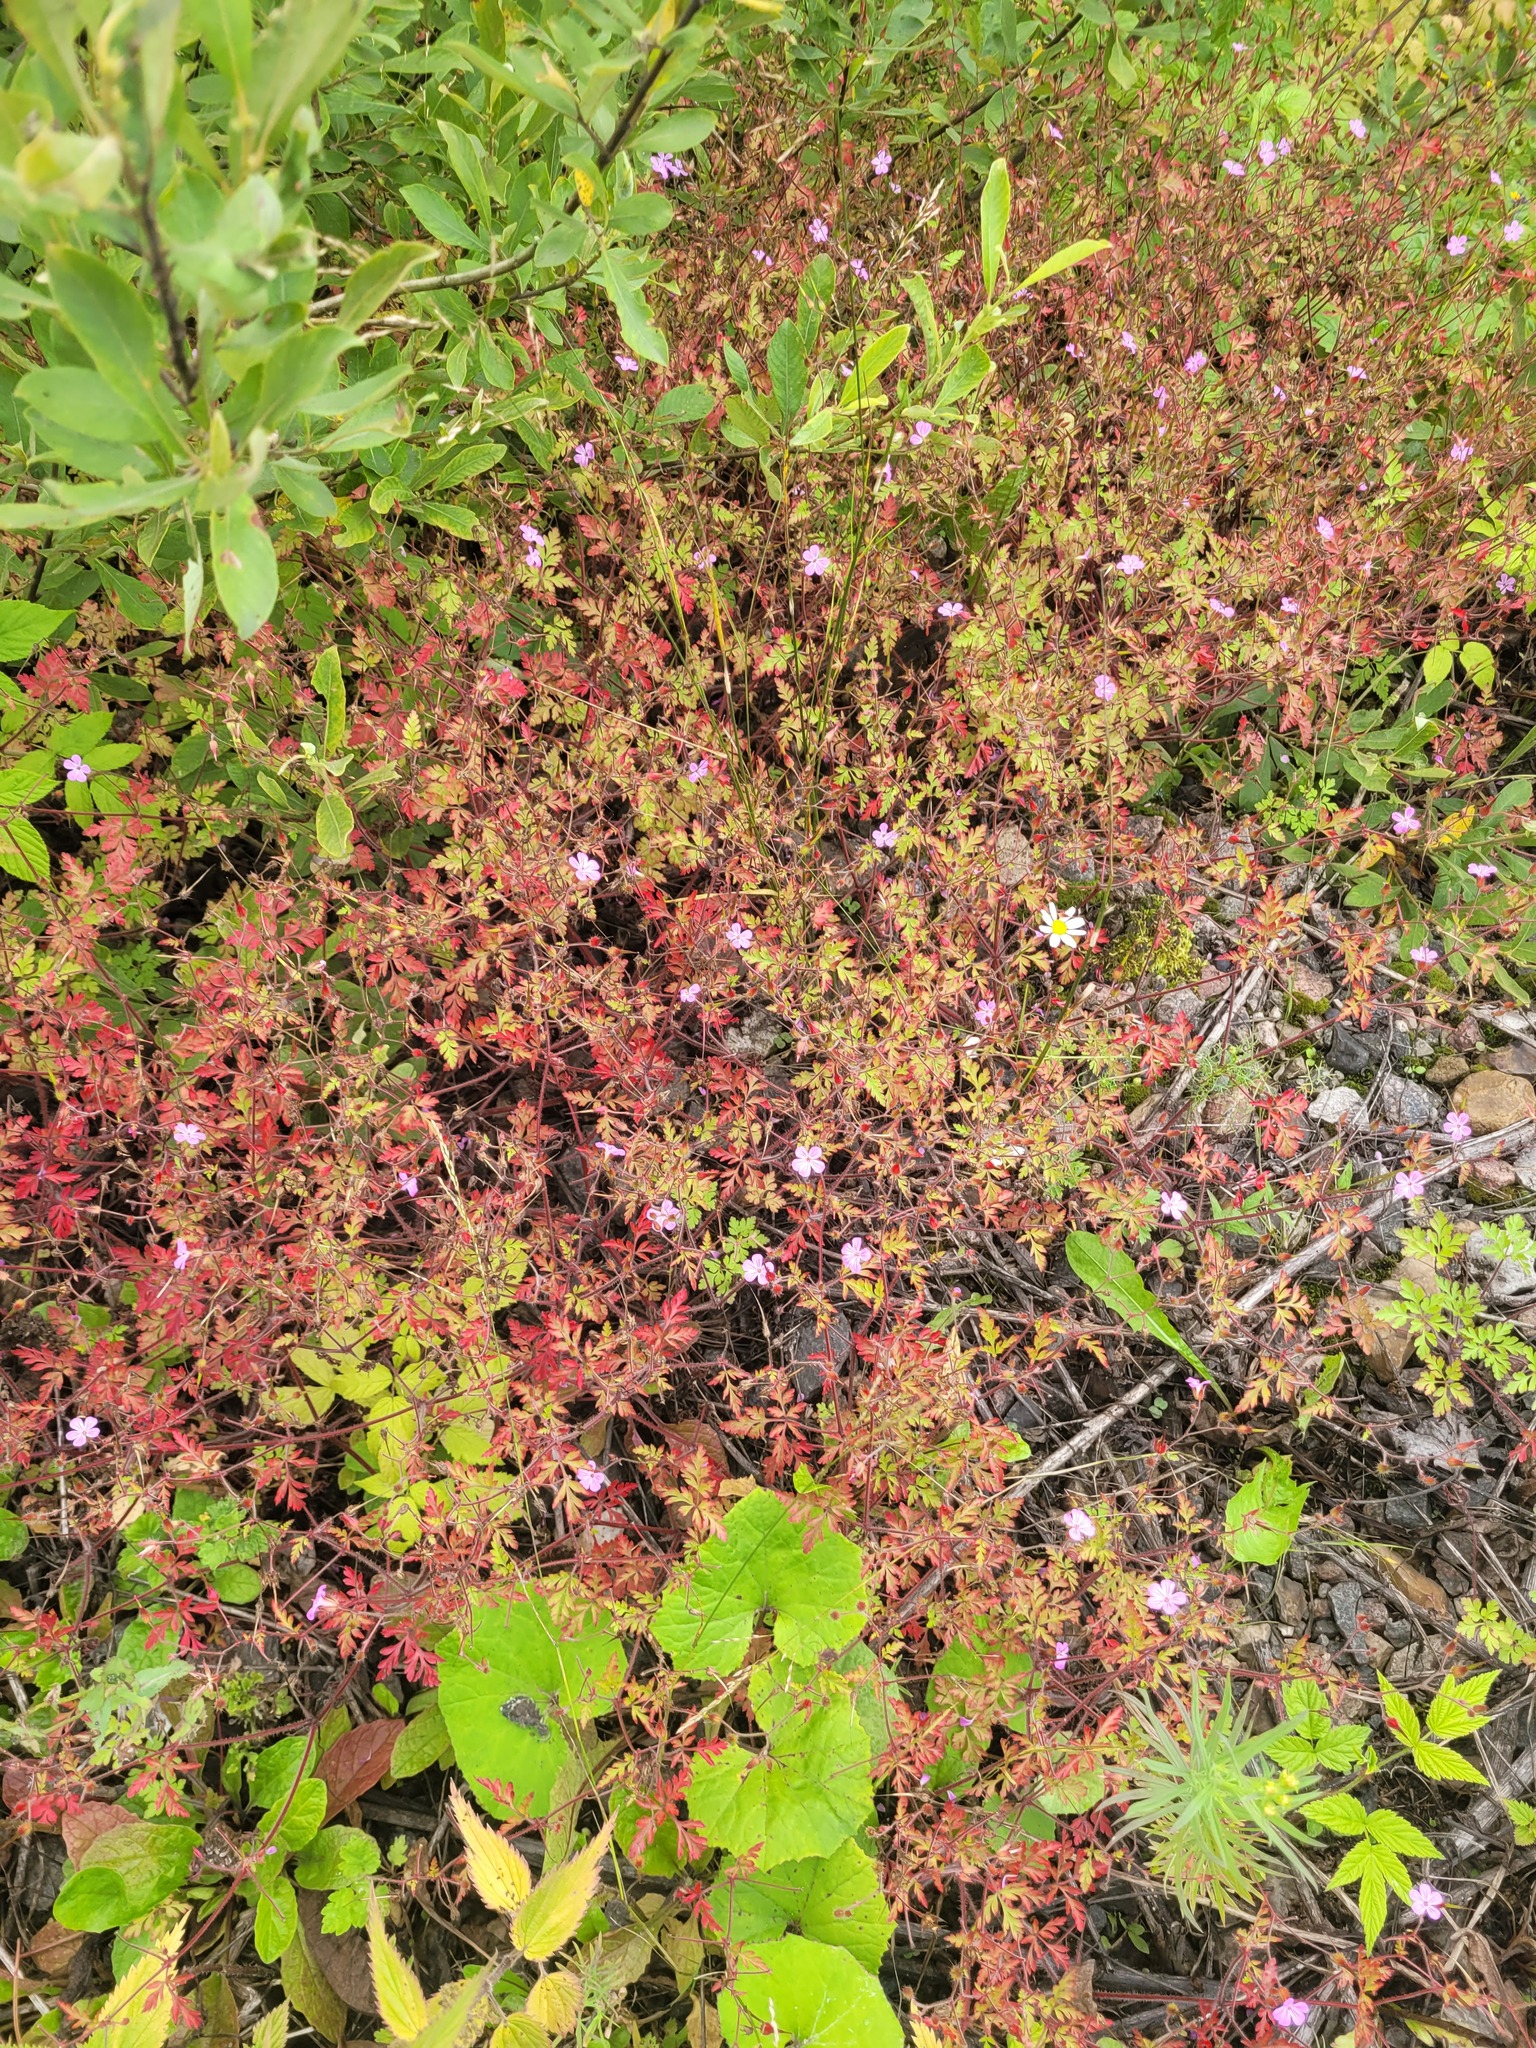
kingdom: Plantae
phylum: Tracheophyta
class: Magnoliopsida
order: Geraniales
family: Geraniaceae
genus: Geranium
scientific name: Geranium robertianum
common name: Herb-robert
